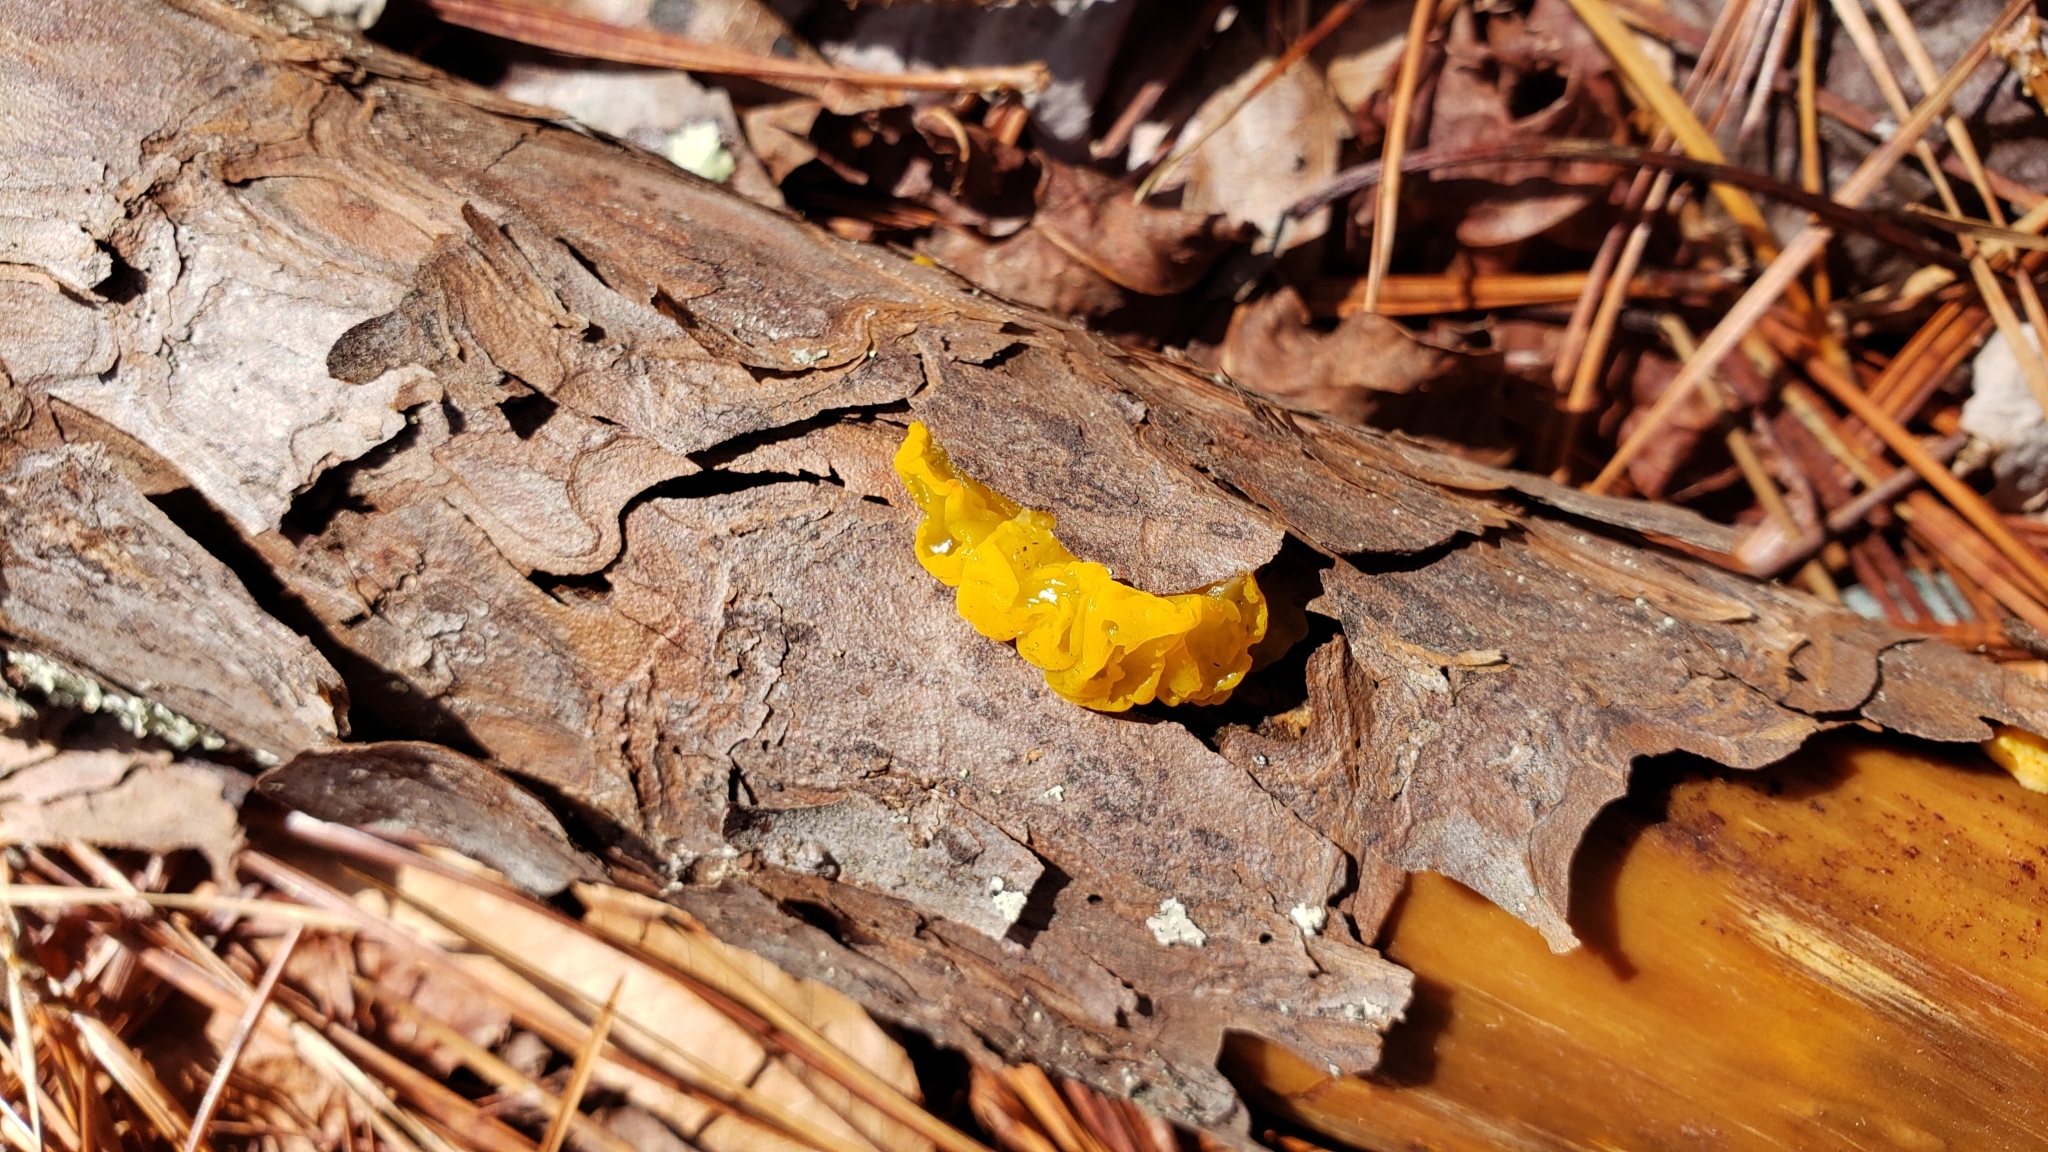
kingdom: Fungi
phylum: Basidiomycota
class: Dacrymycetes
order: Dacrymycetales
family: Dacrymycetaceae
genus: Dacrymyces
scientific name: Dacrymyces chrysospermus
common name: Orange jelly spot
